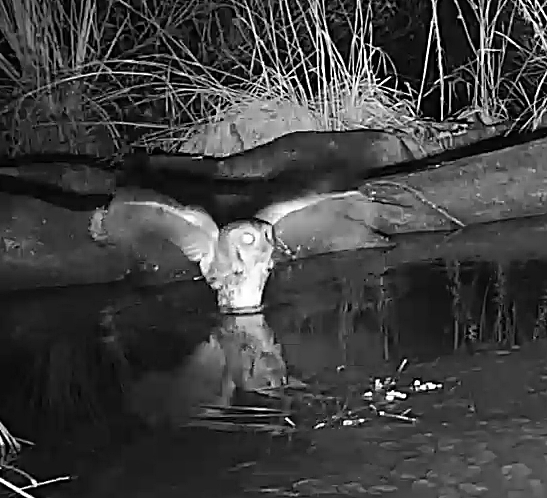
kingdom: Animalia
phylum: Chordata
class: Aves
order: Strigiformes
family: Strigidae
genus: Megascops
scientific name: Megascops asio
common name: Eastern screech-owl
